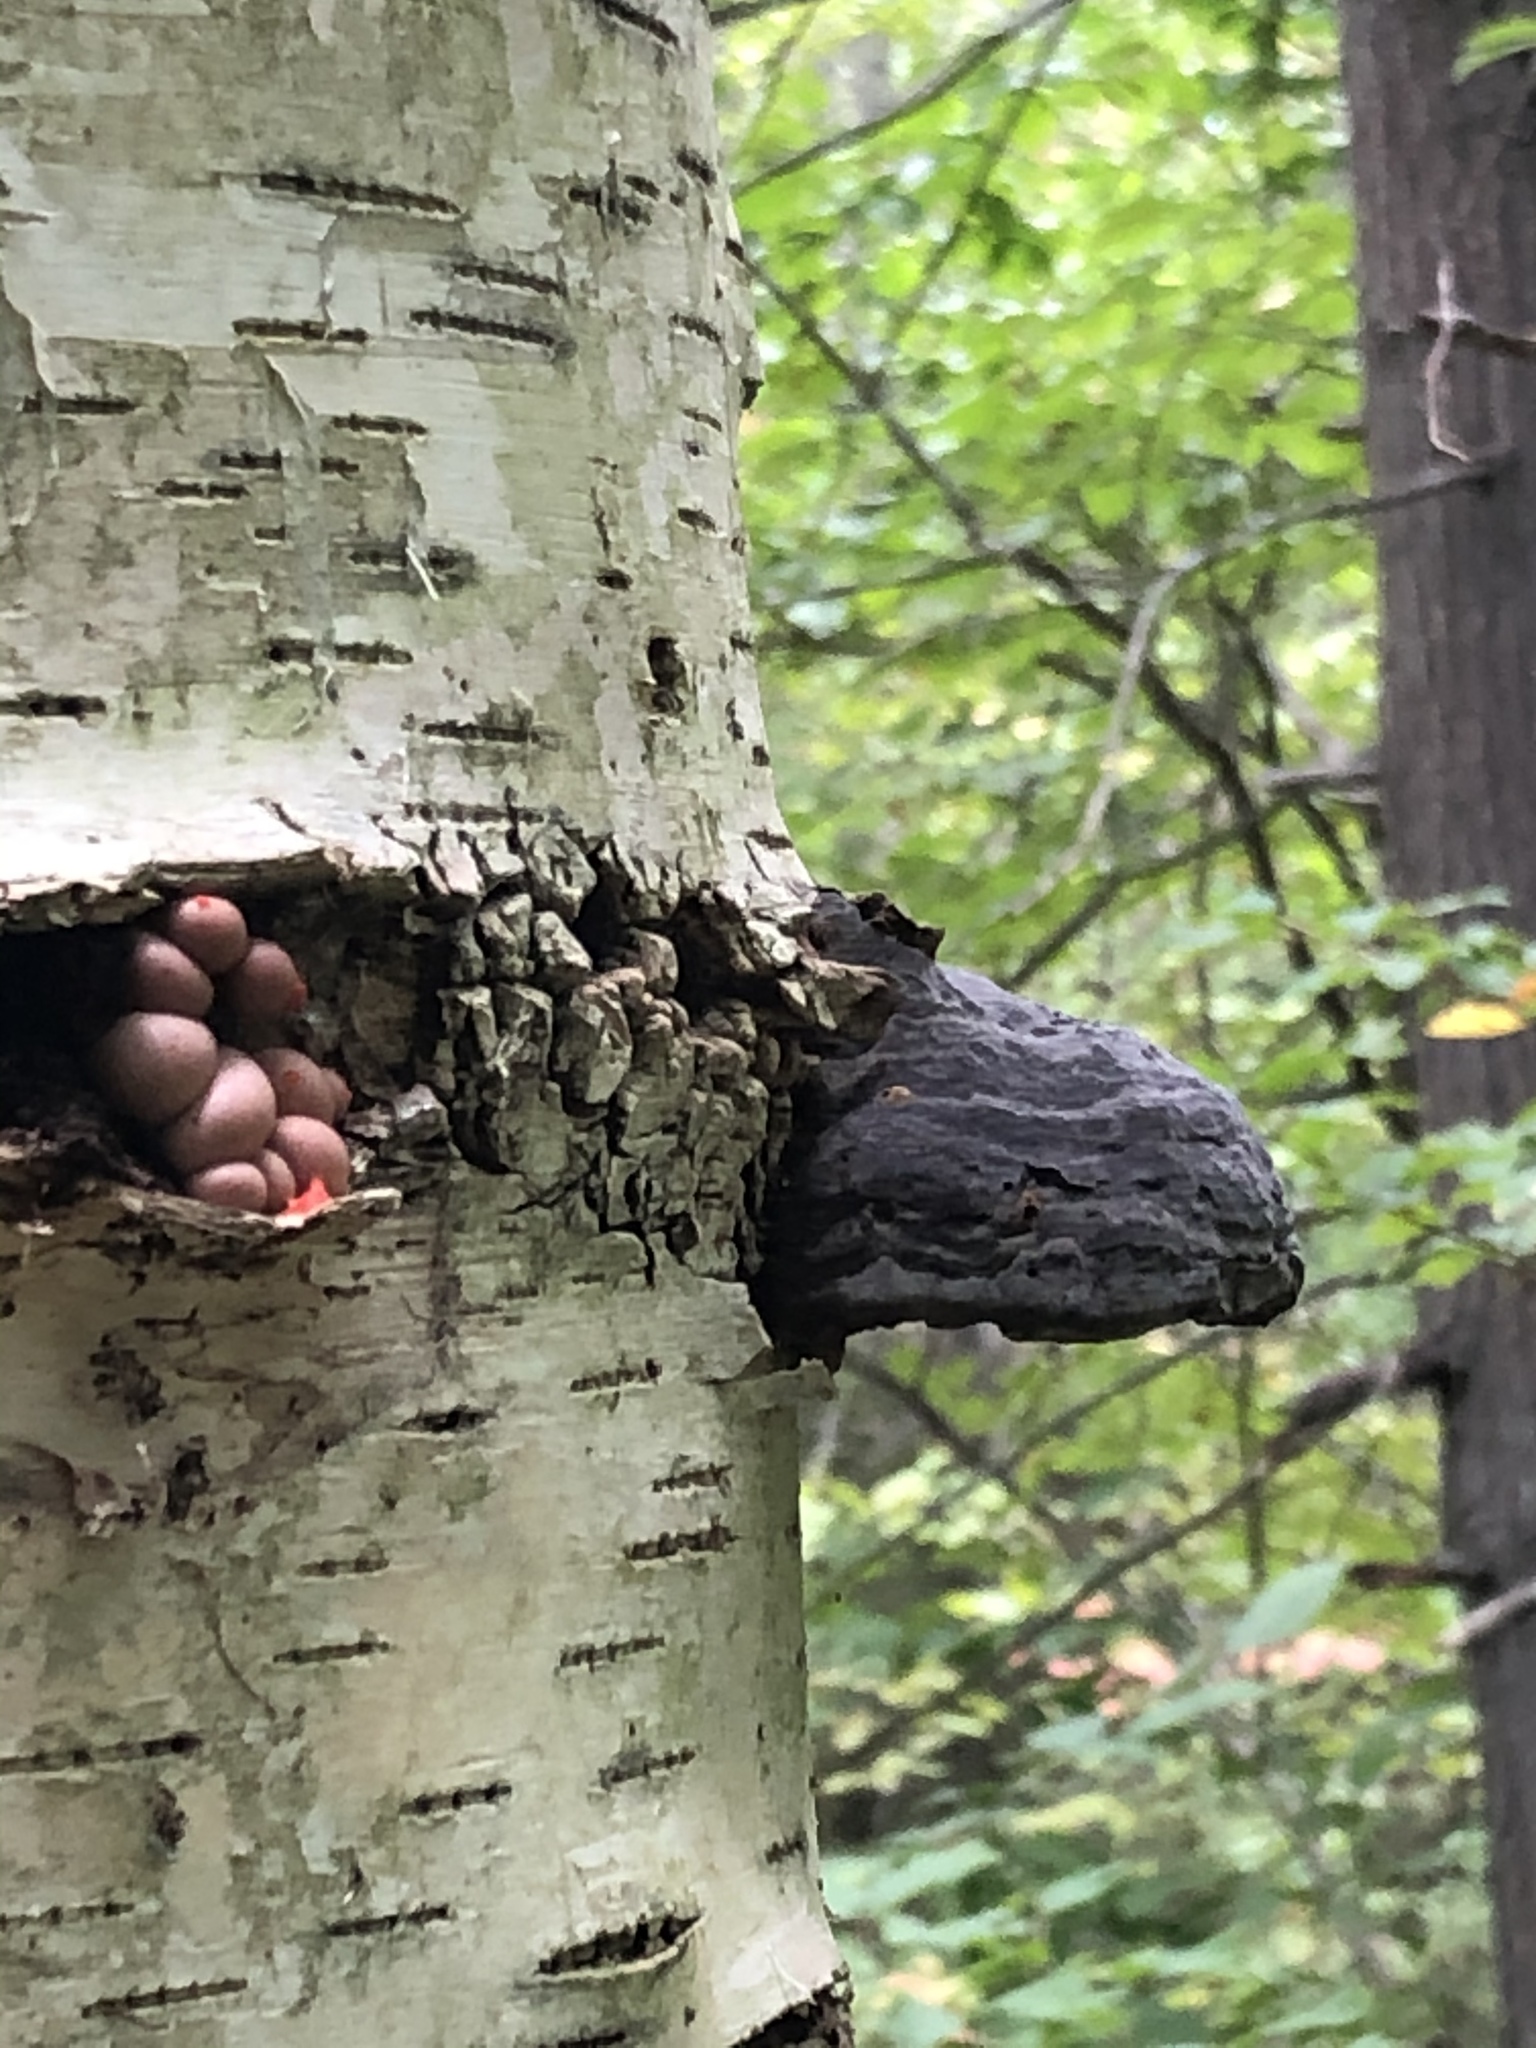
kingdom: Protozoa
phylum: Mycetozoa
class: Myxomycetes
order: Cribrariales
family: Tubiferaceae
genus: Lycogala
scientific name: Lycogala epidendrum
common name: Wolf's milk
